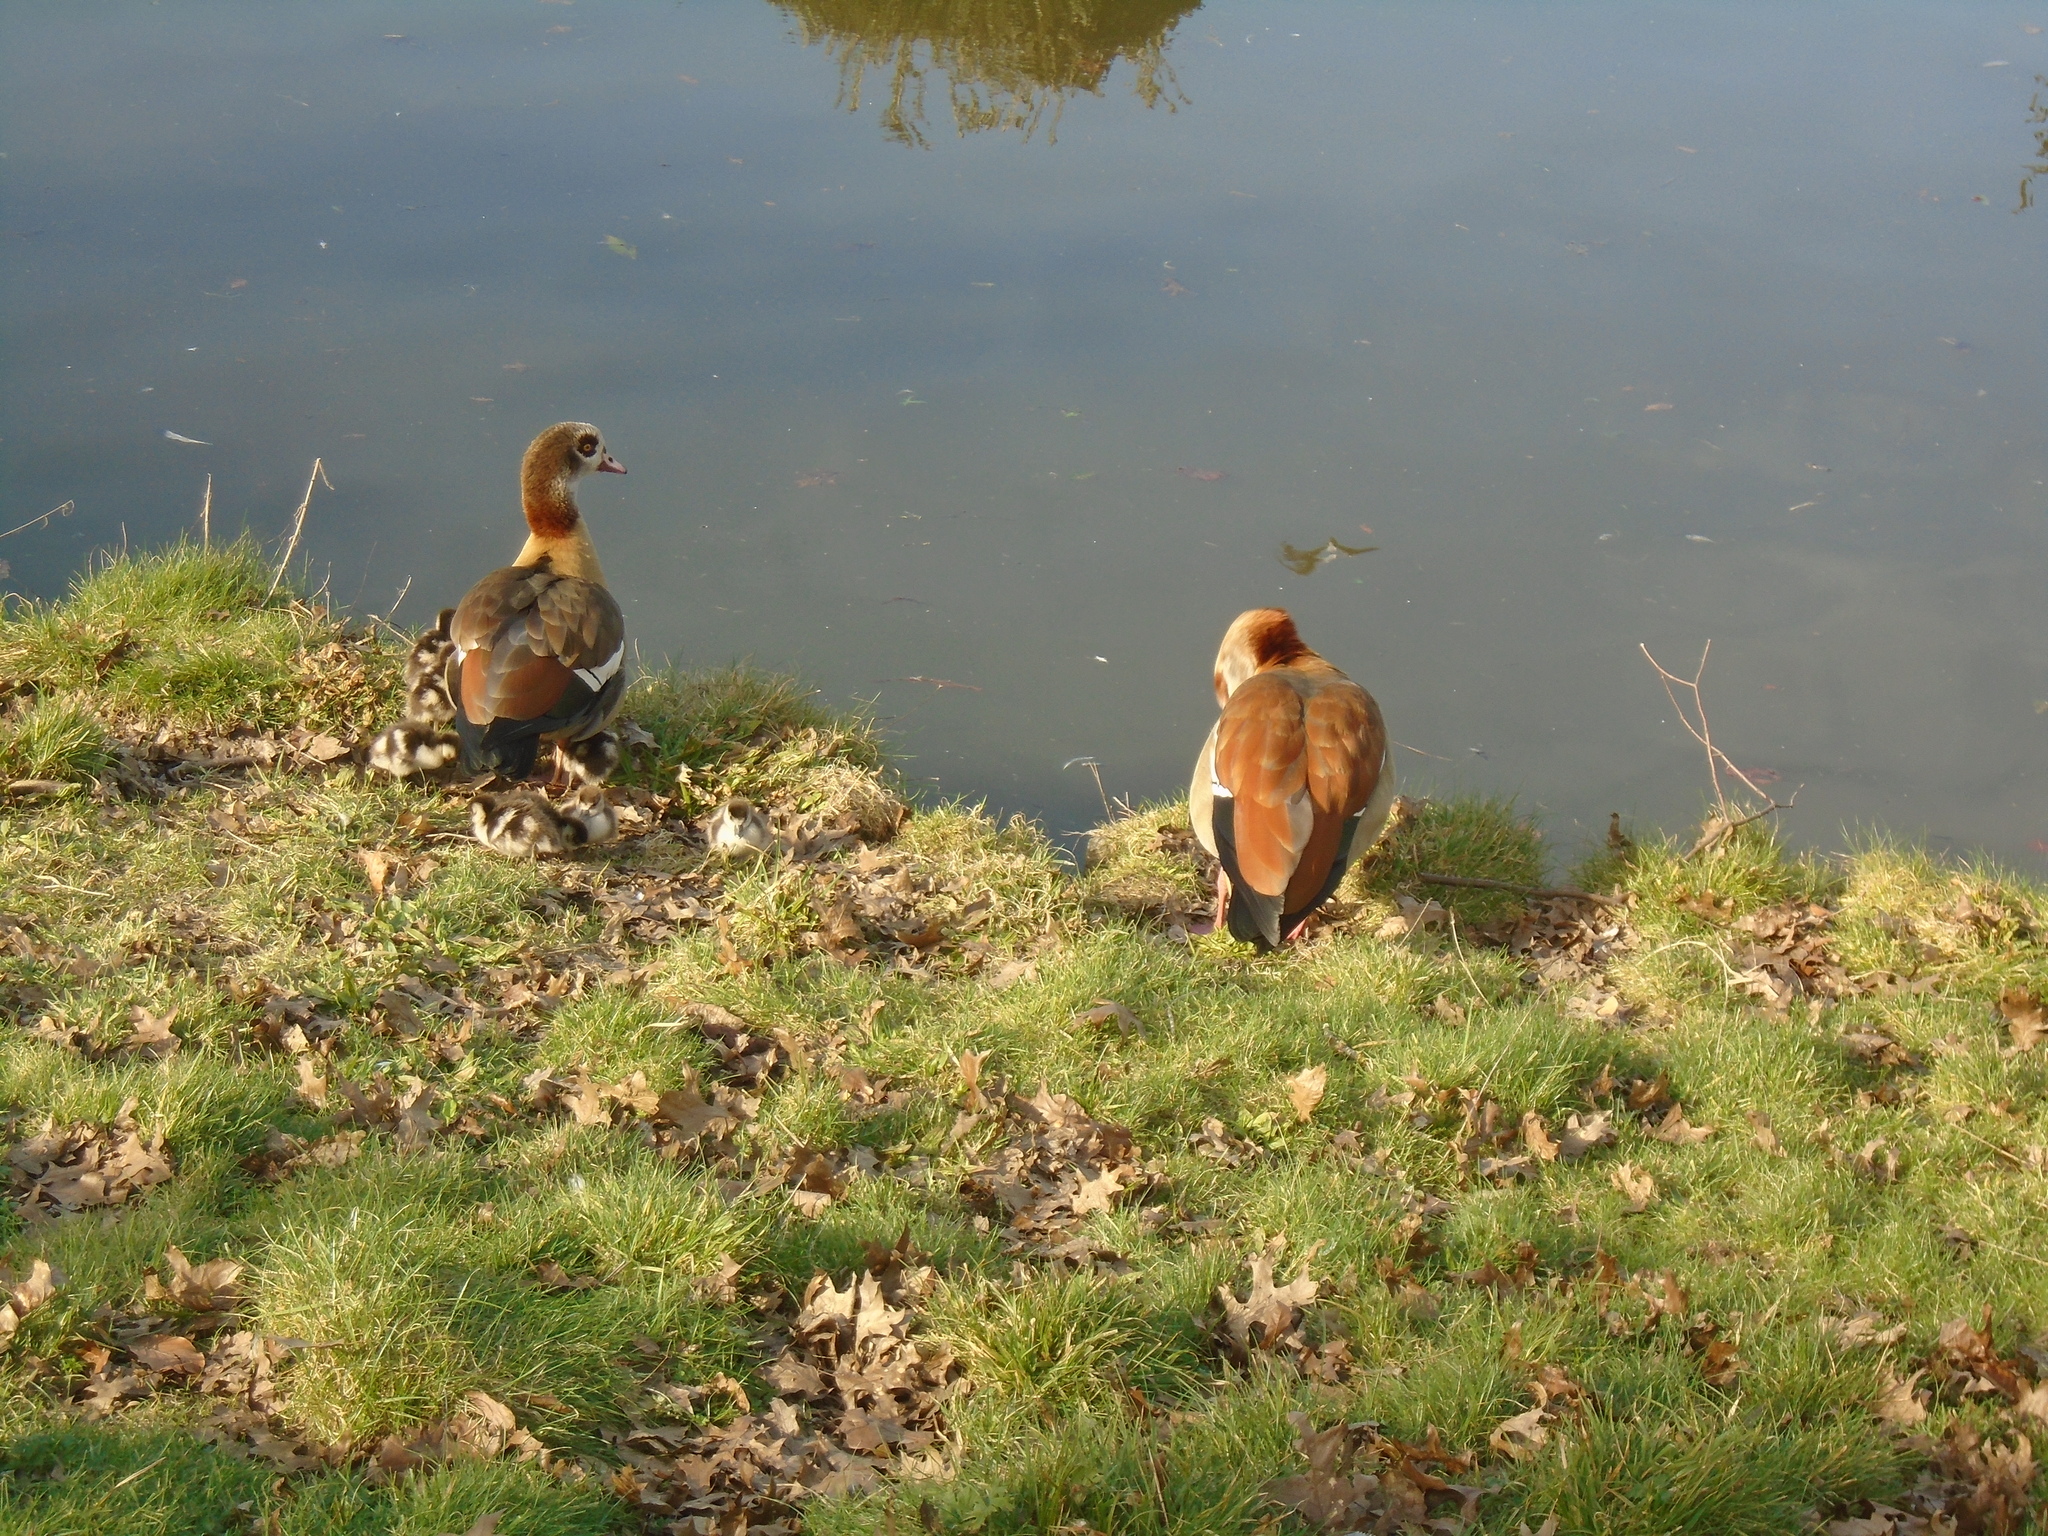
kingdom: Animalia
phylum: Chordata
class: Aves
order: Anseriformes
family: Anatidae
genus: Alopochen
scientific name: Alopochen aegyptiaca
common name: Egyptian goose
